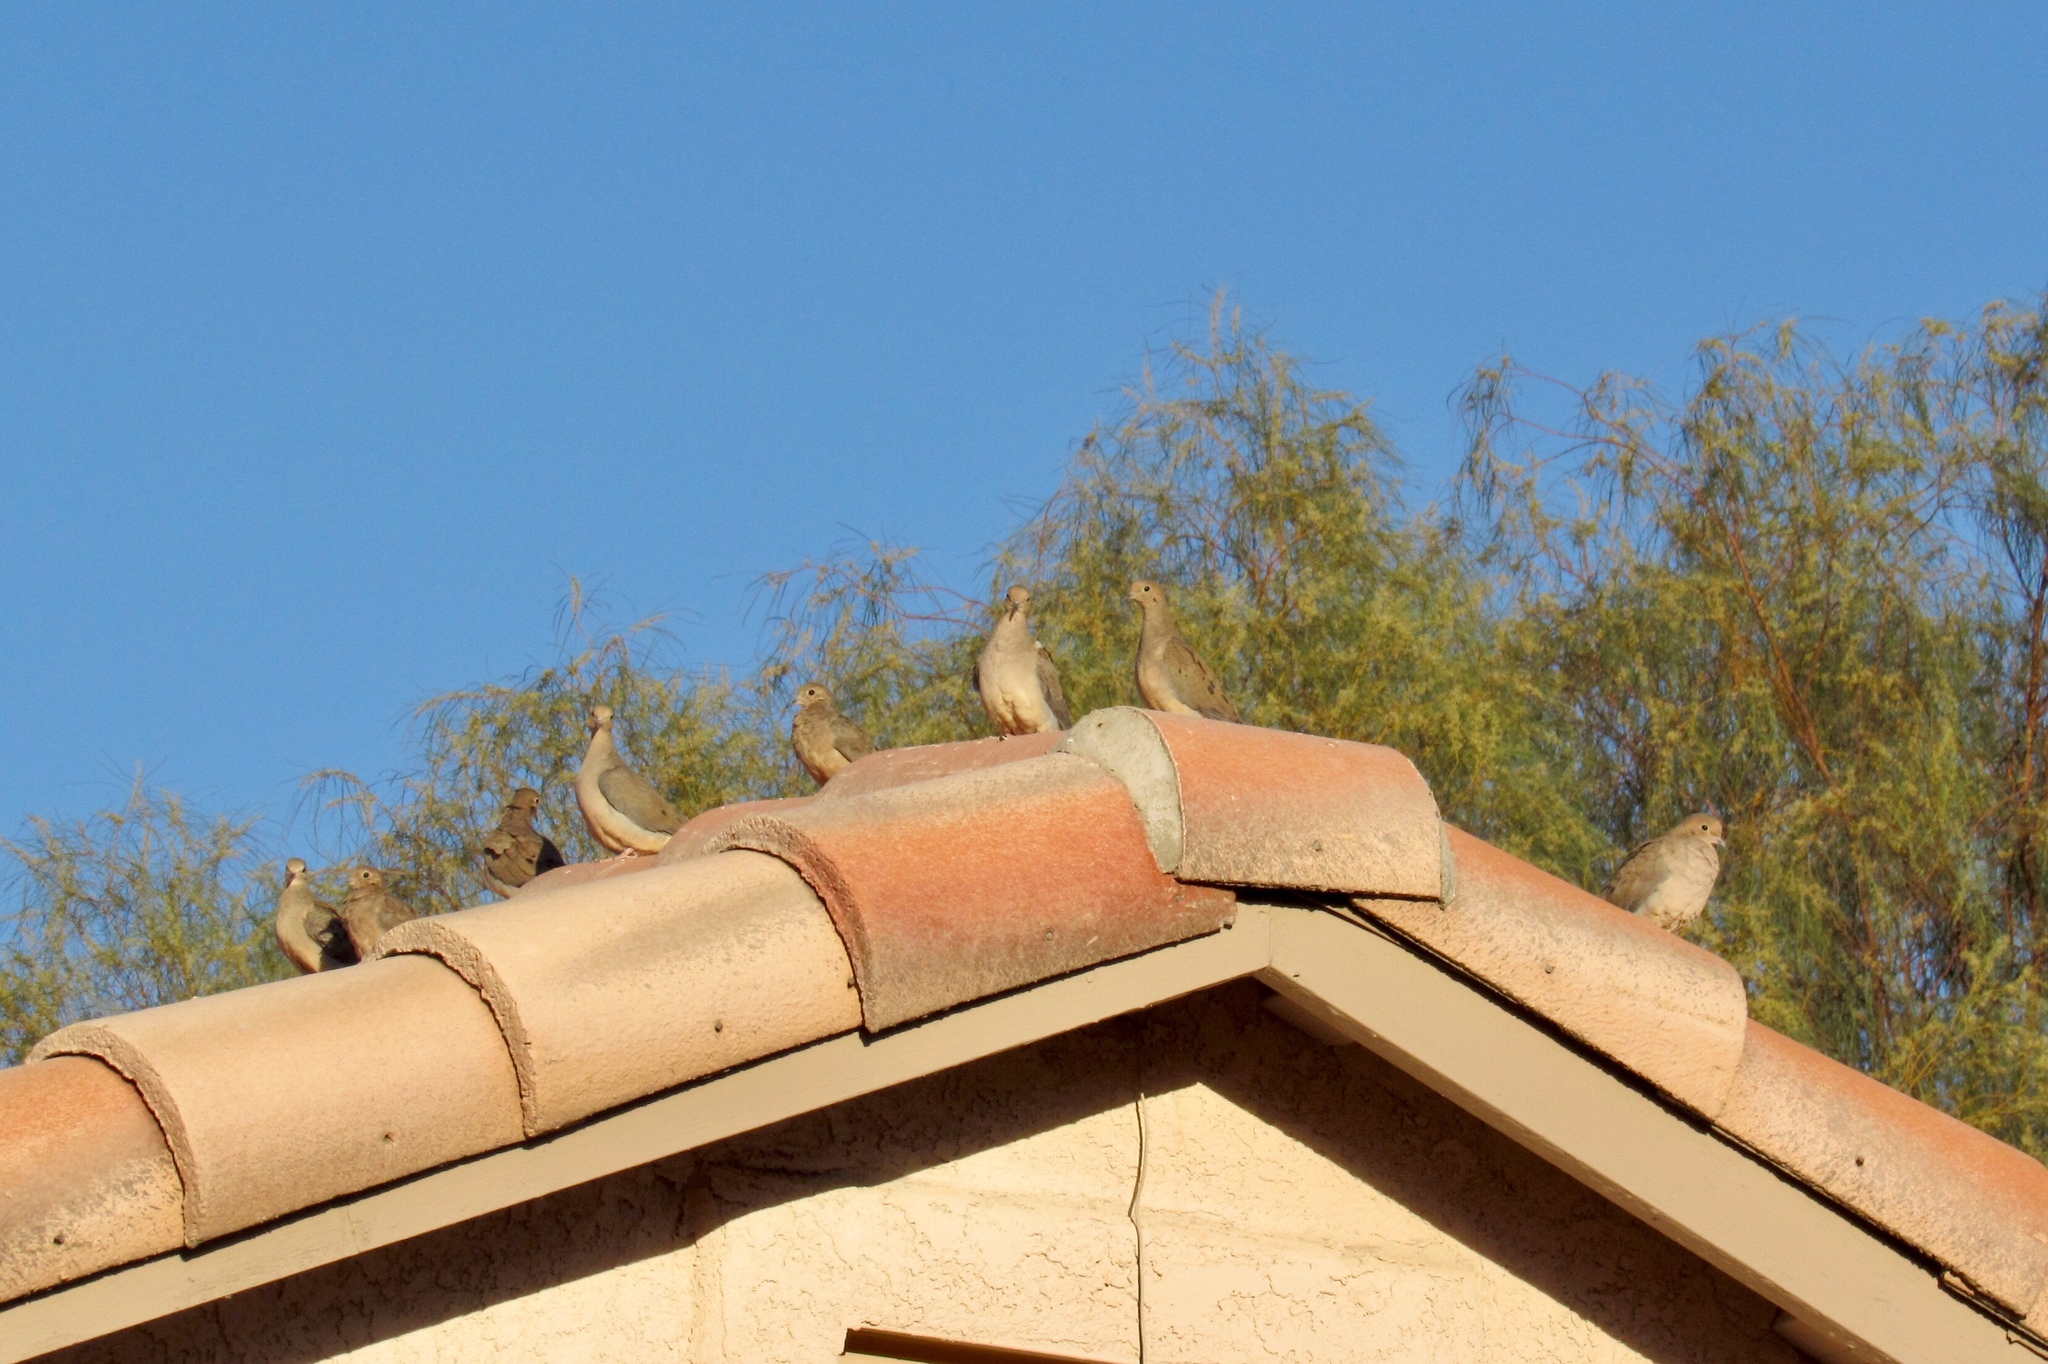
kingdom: Animalia
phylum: Chordata
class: Aves
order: Columbiformes
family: Columbidae
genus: Zenaida
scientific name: Zenaida macroura
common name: Mourning dove
